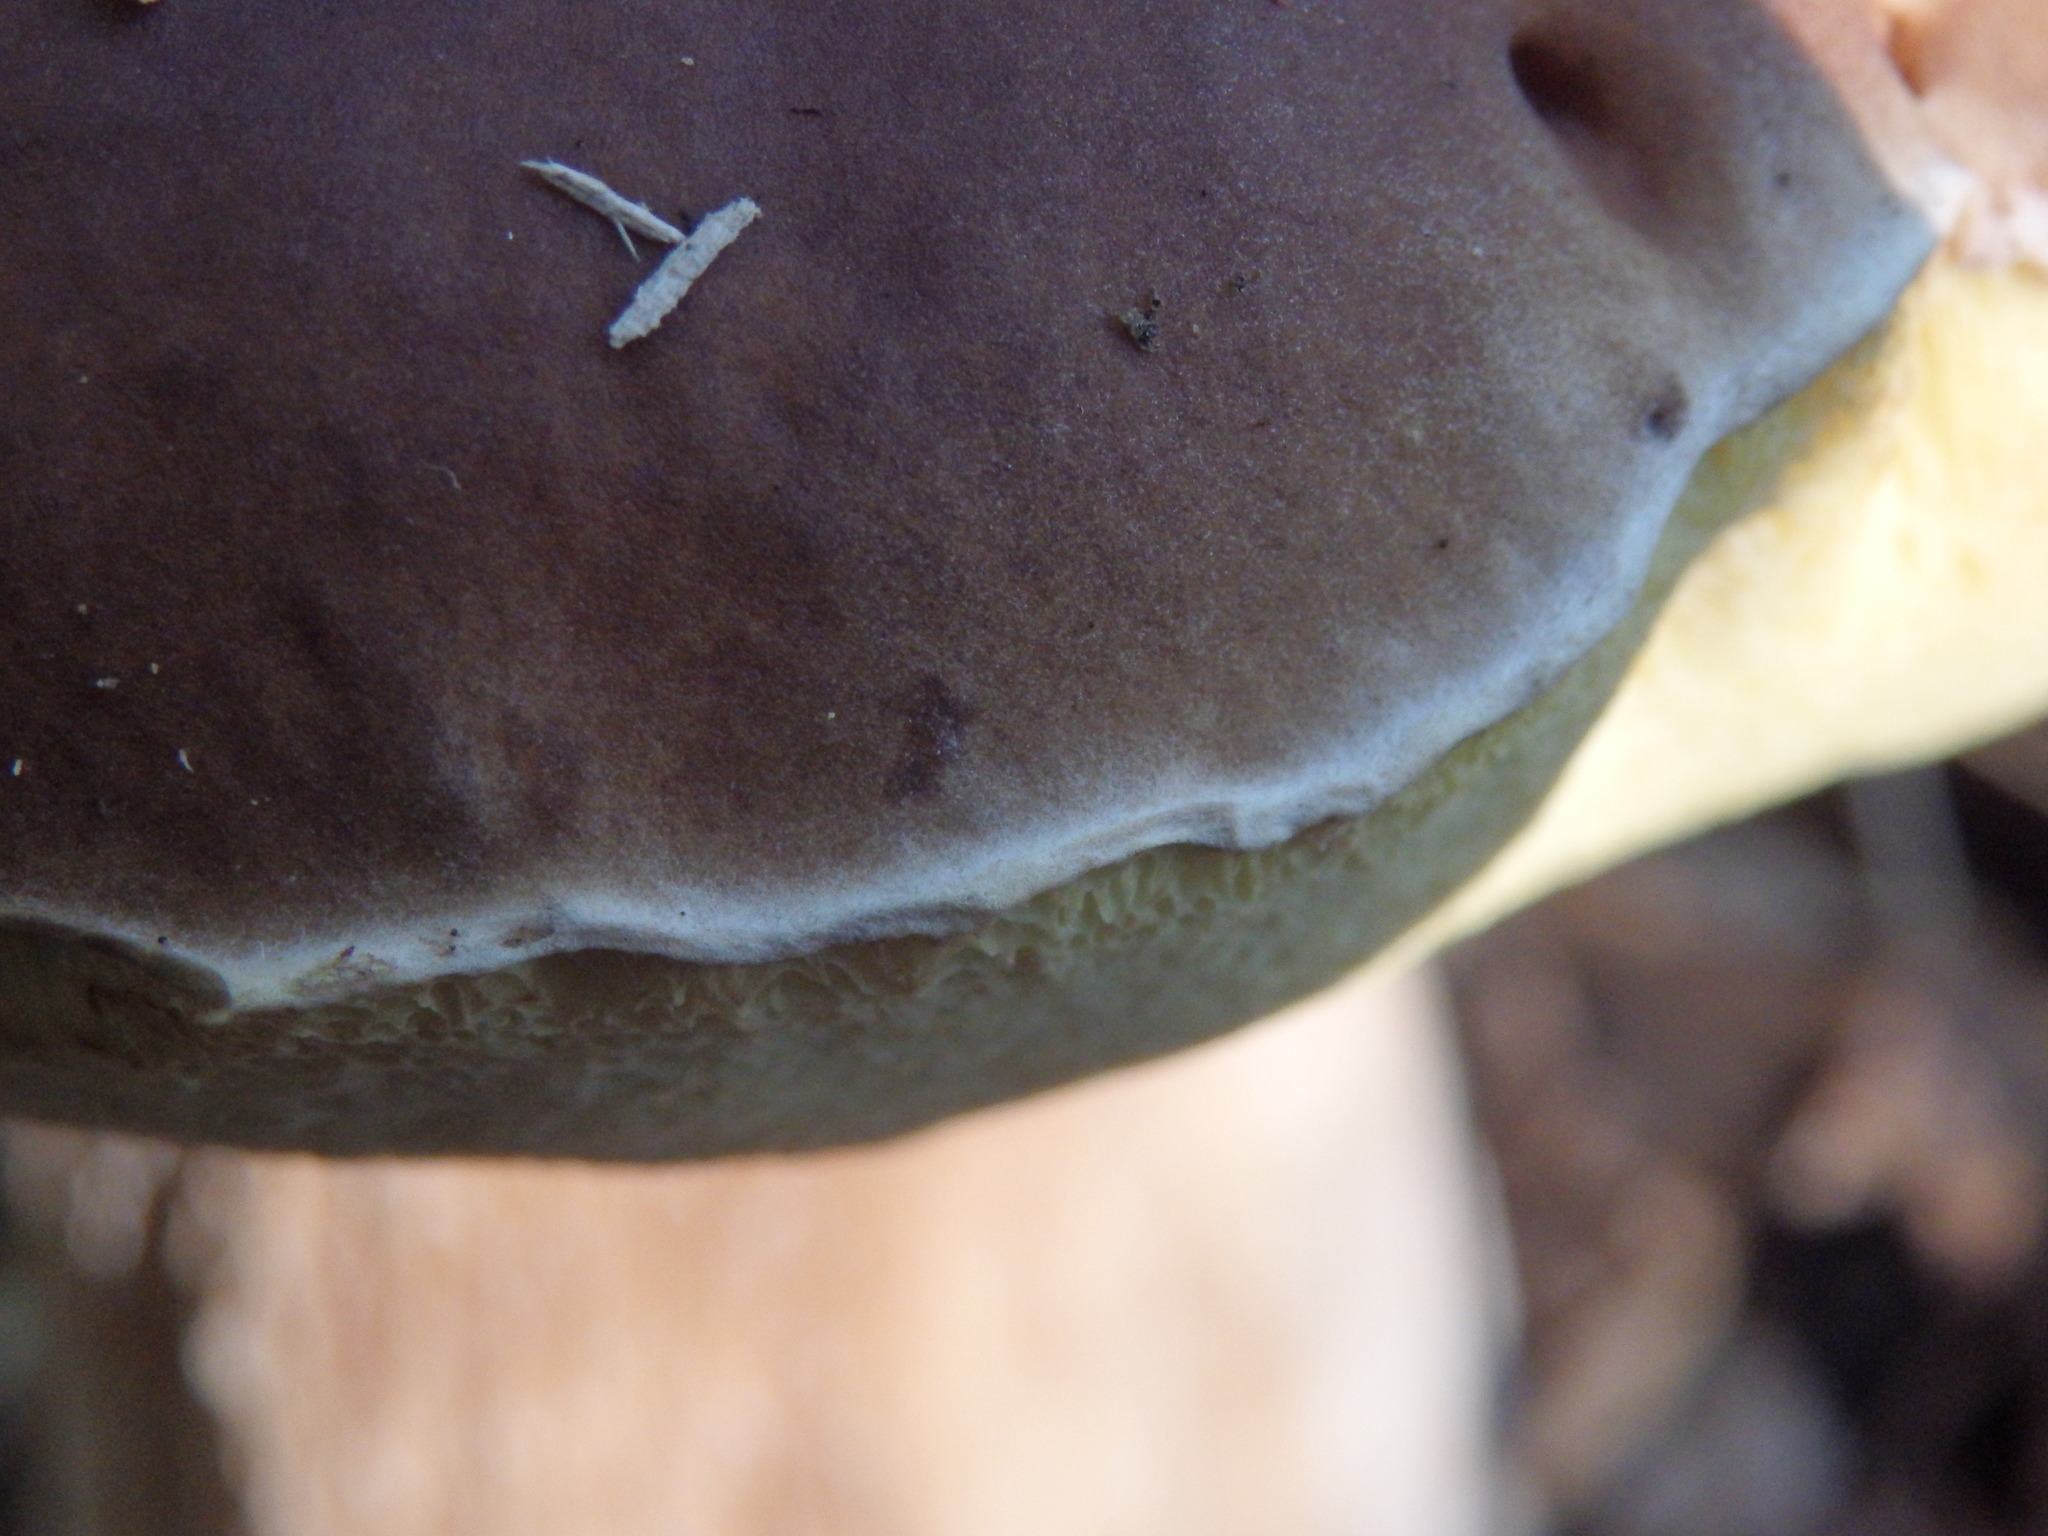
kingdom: Fungi
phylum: Basidiomycota
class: Agaricomycetes
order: Boletales
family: Boletaceae
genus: Boletus
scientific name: Boletus edulis
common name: Cep
